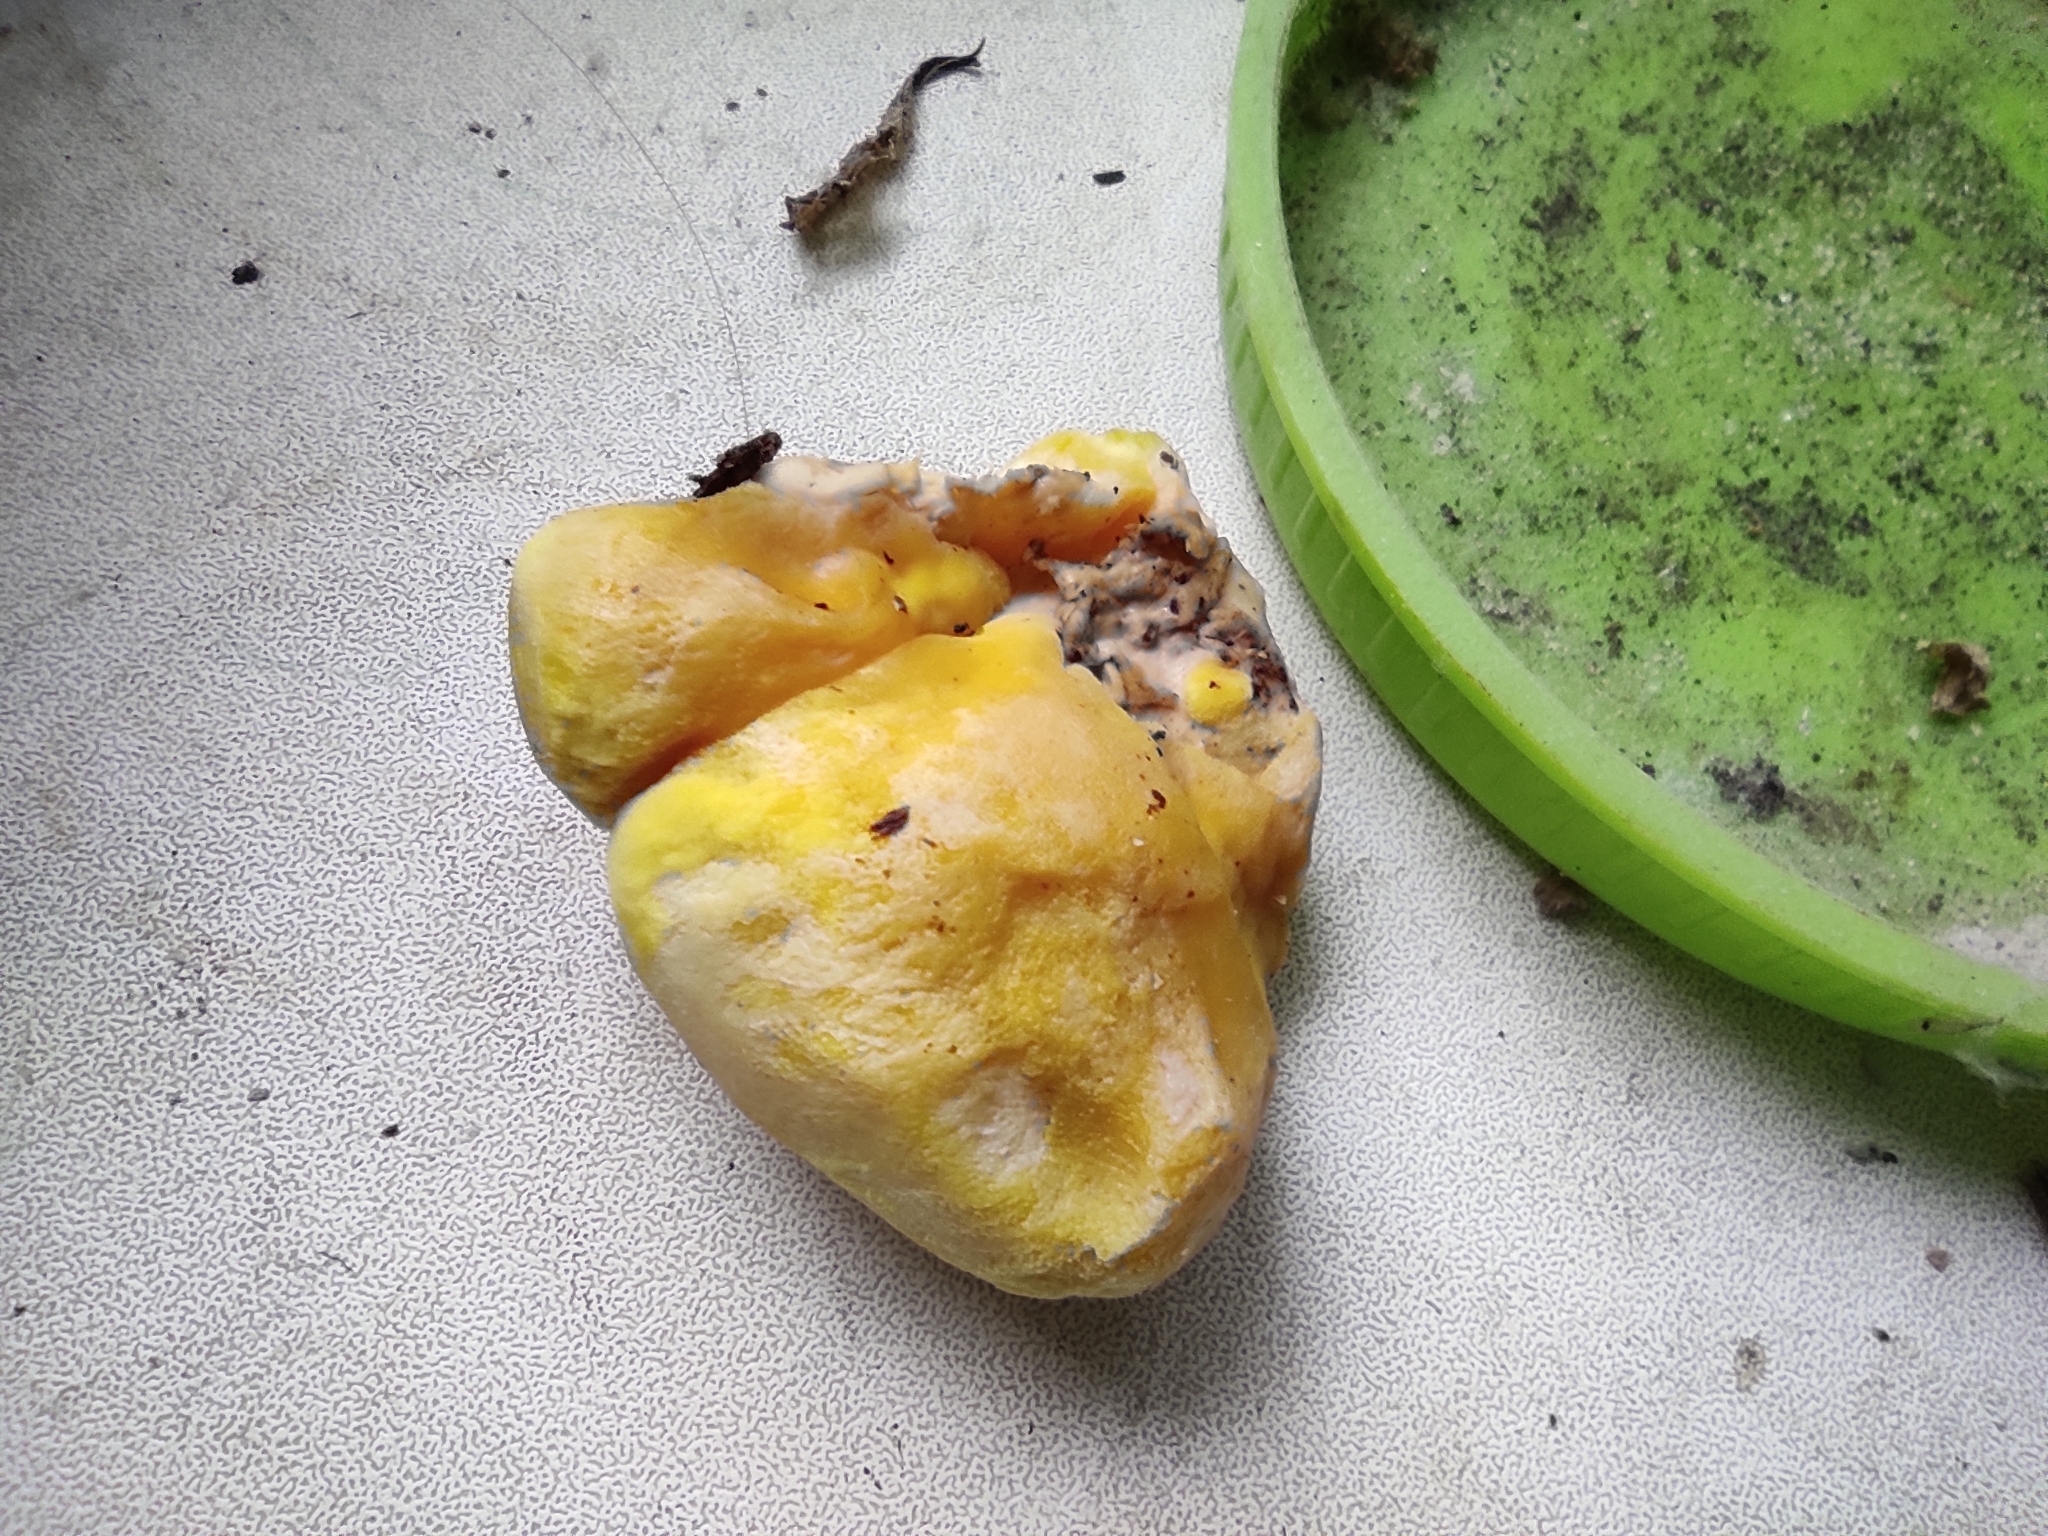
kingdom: Fungi
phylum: Basidiomycota
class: Agaricomycetes
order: Polyporales
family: Laetiporaceae
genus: Laetiporus
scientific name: Laetiporus sulphureus
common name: Chicken of the woods
